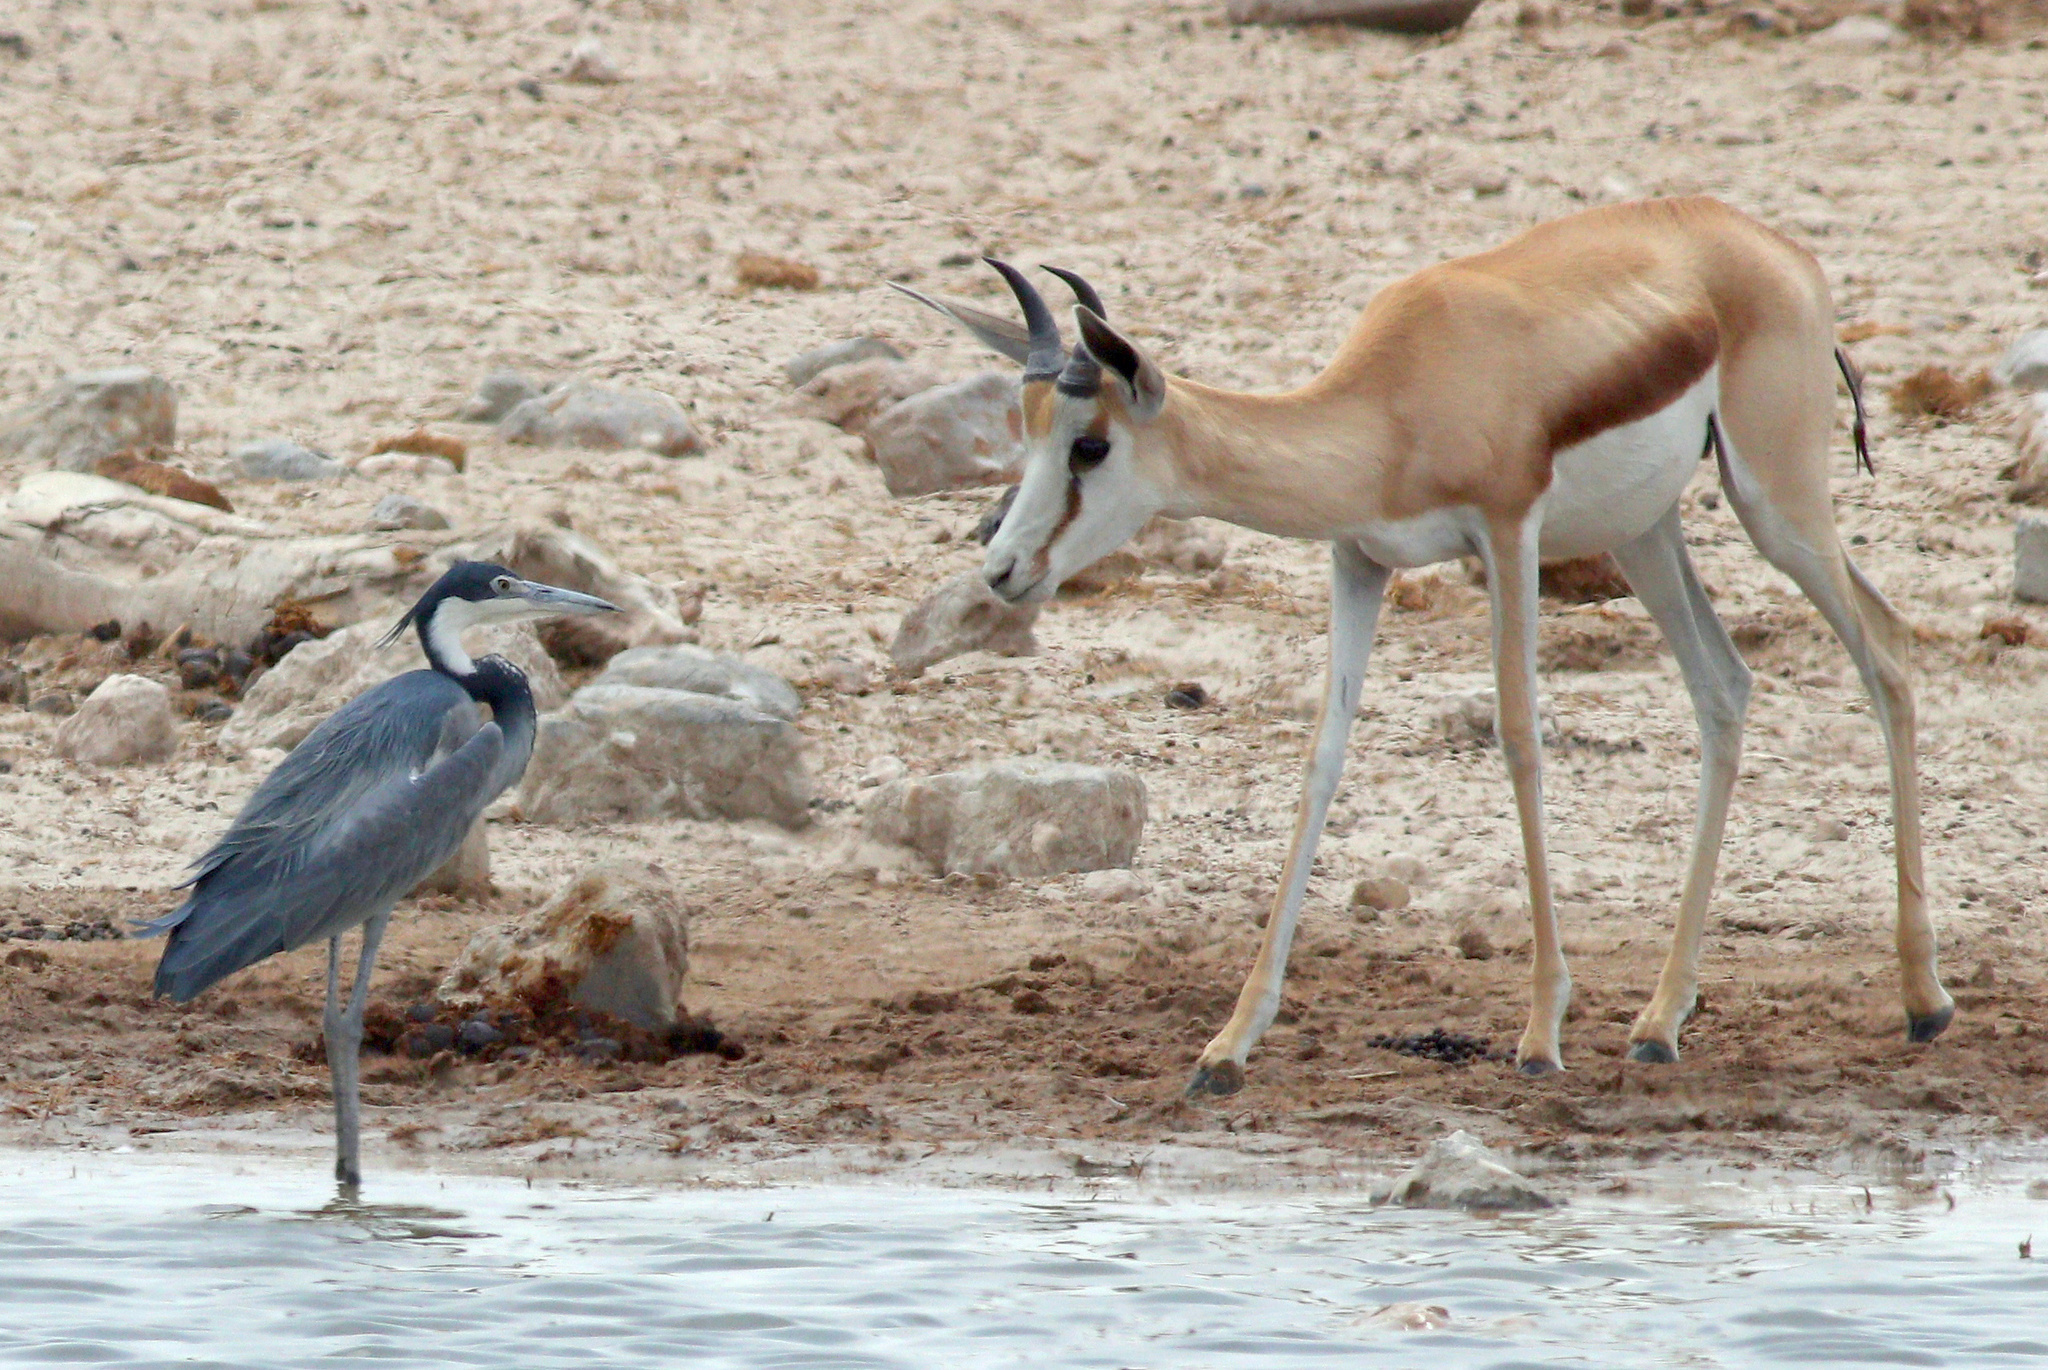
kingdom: Animalia
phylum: Chordata
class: Aves
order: Pelecaniformes
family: Ardeidae
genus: Ardea
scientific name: Ardea melanocephala
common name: Black-headed heron
